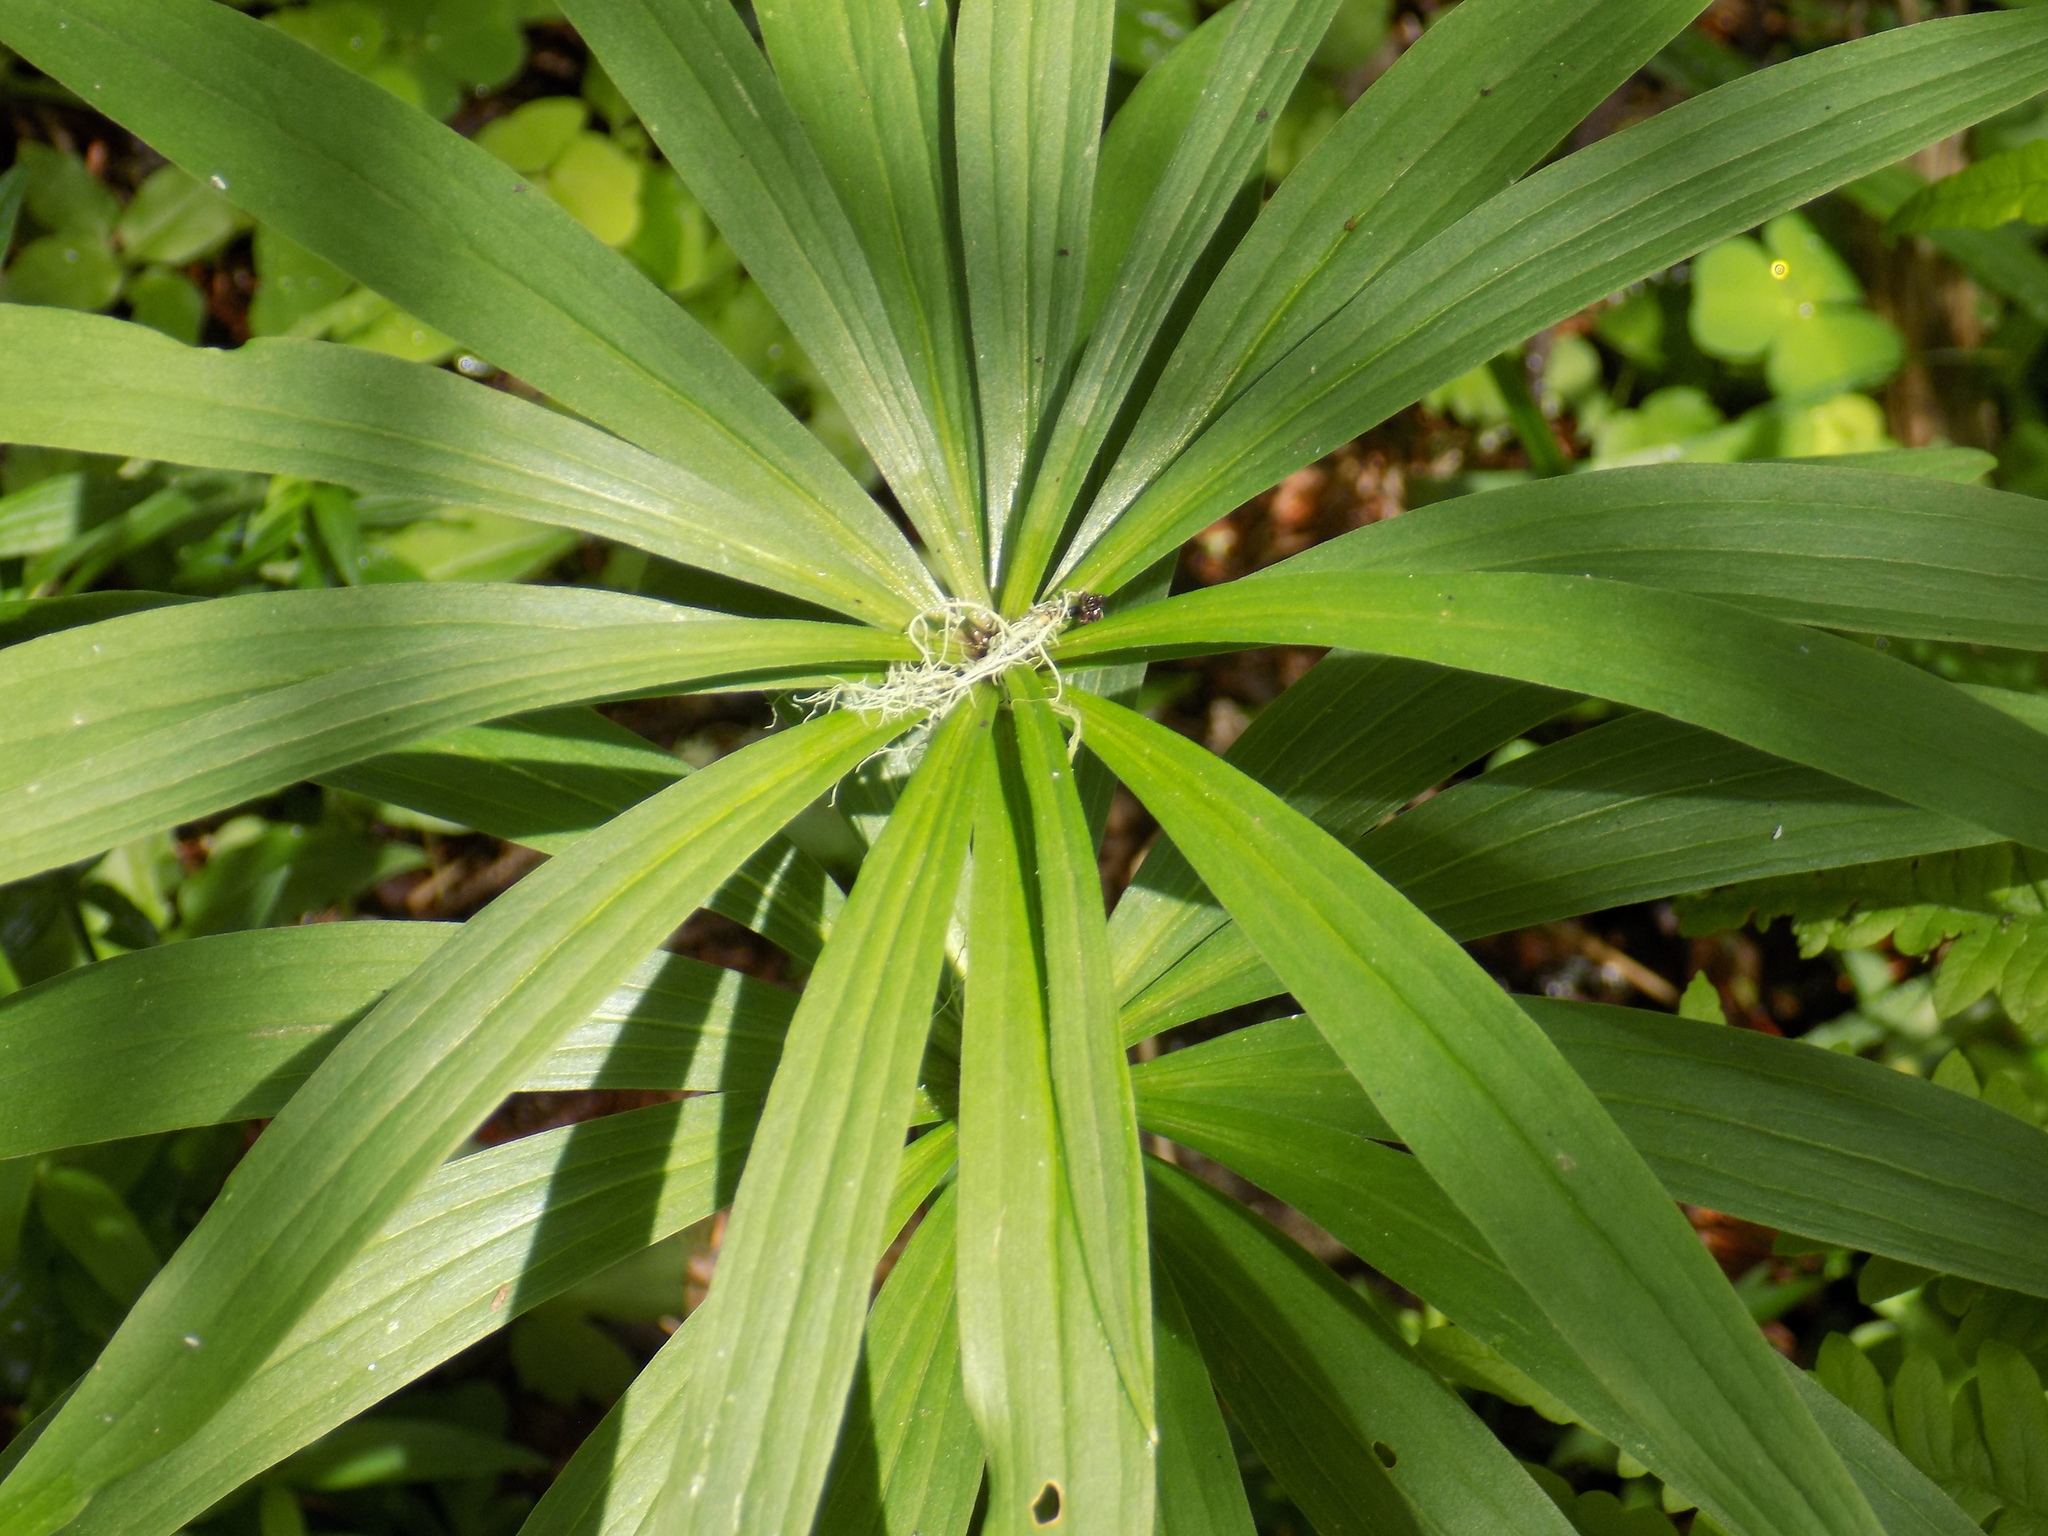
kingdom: Plantae
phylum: Tracheophyta
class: Liliopsida
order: Liliales
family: Liliaceae
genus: Lilium
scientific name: Lilium martagon
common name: Martagon lily
